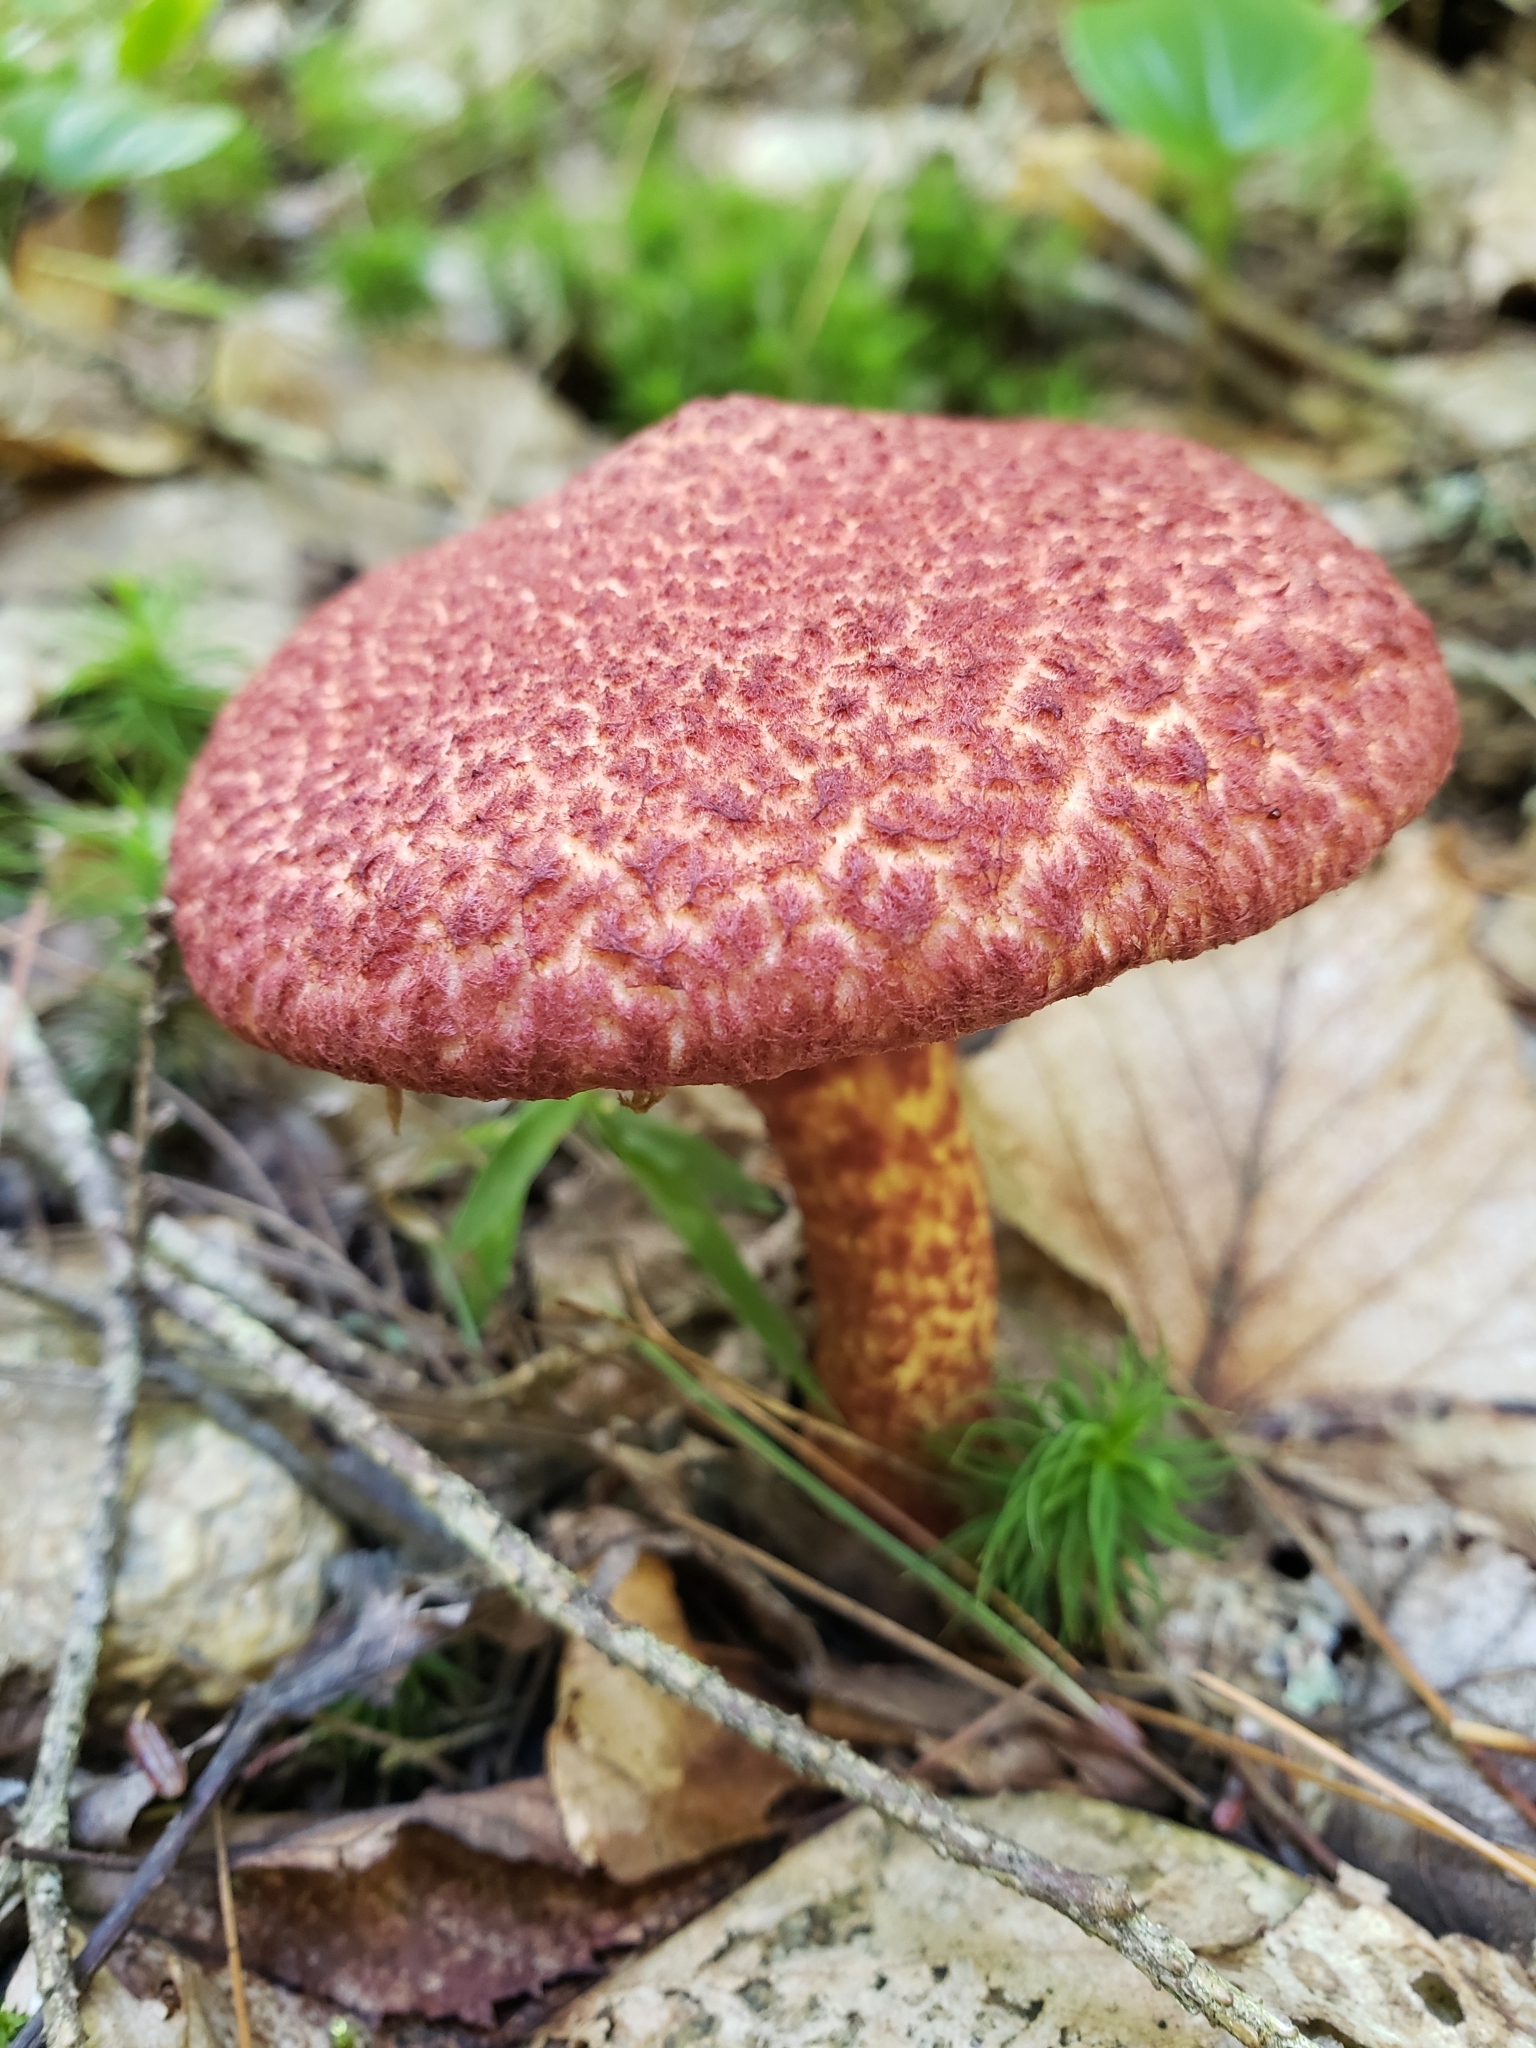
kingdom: Fungi
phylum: Basidiomycota
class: Agaricomycetes
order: Boletales
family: Suillaceae
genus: Suillus
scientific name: Suillus spraguei
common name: Painted suillus
